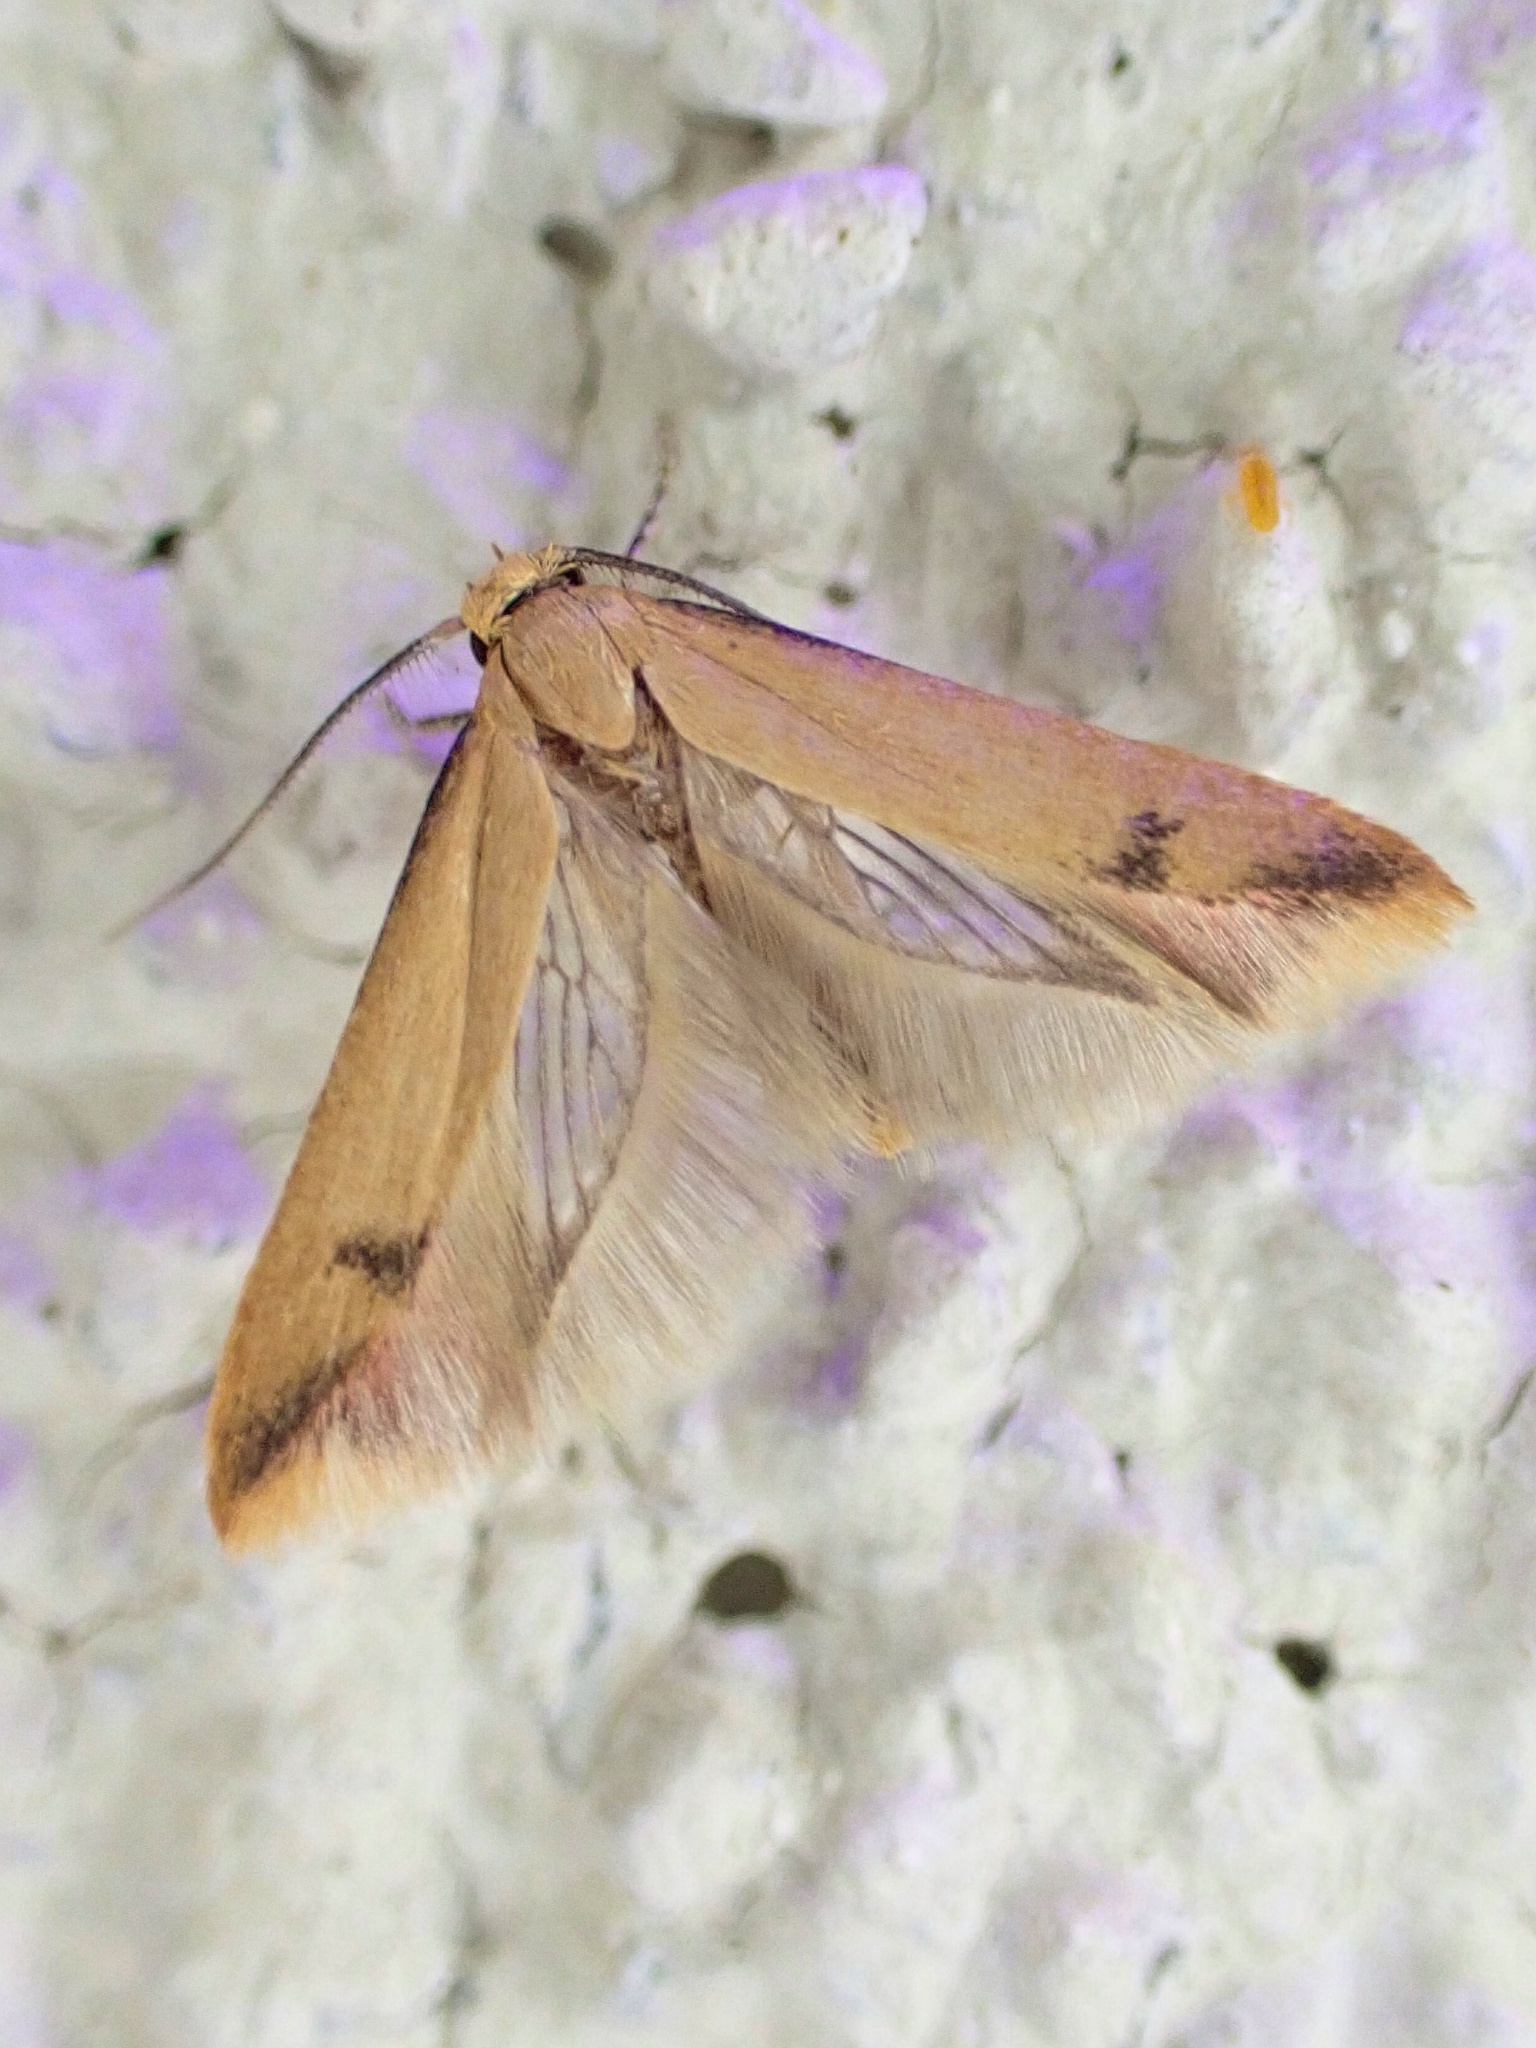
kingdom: Animalia
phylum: Arthropoda
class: Insecta
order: Lepidoptera
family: Oecophoridae
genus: Tachystola
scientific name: Tachystola hemisema
